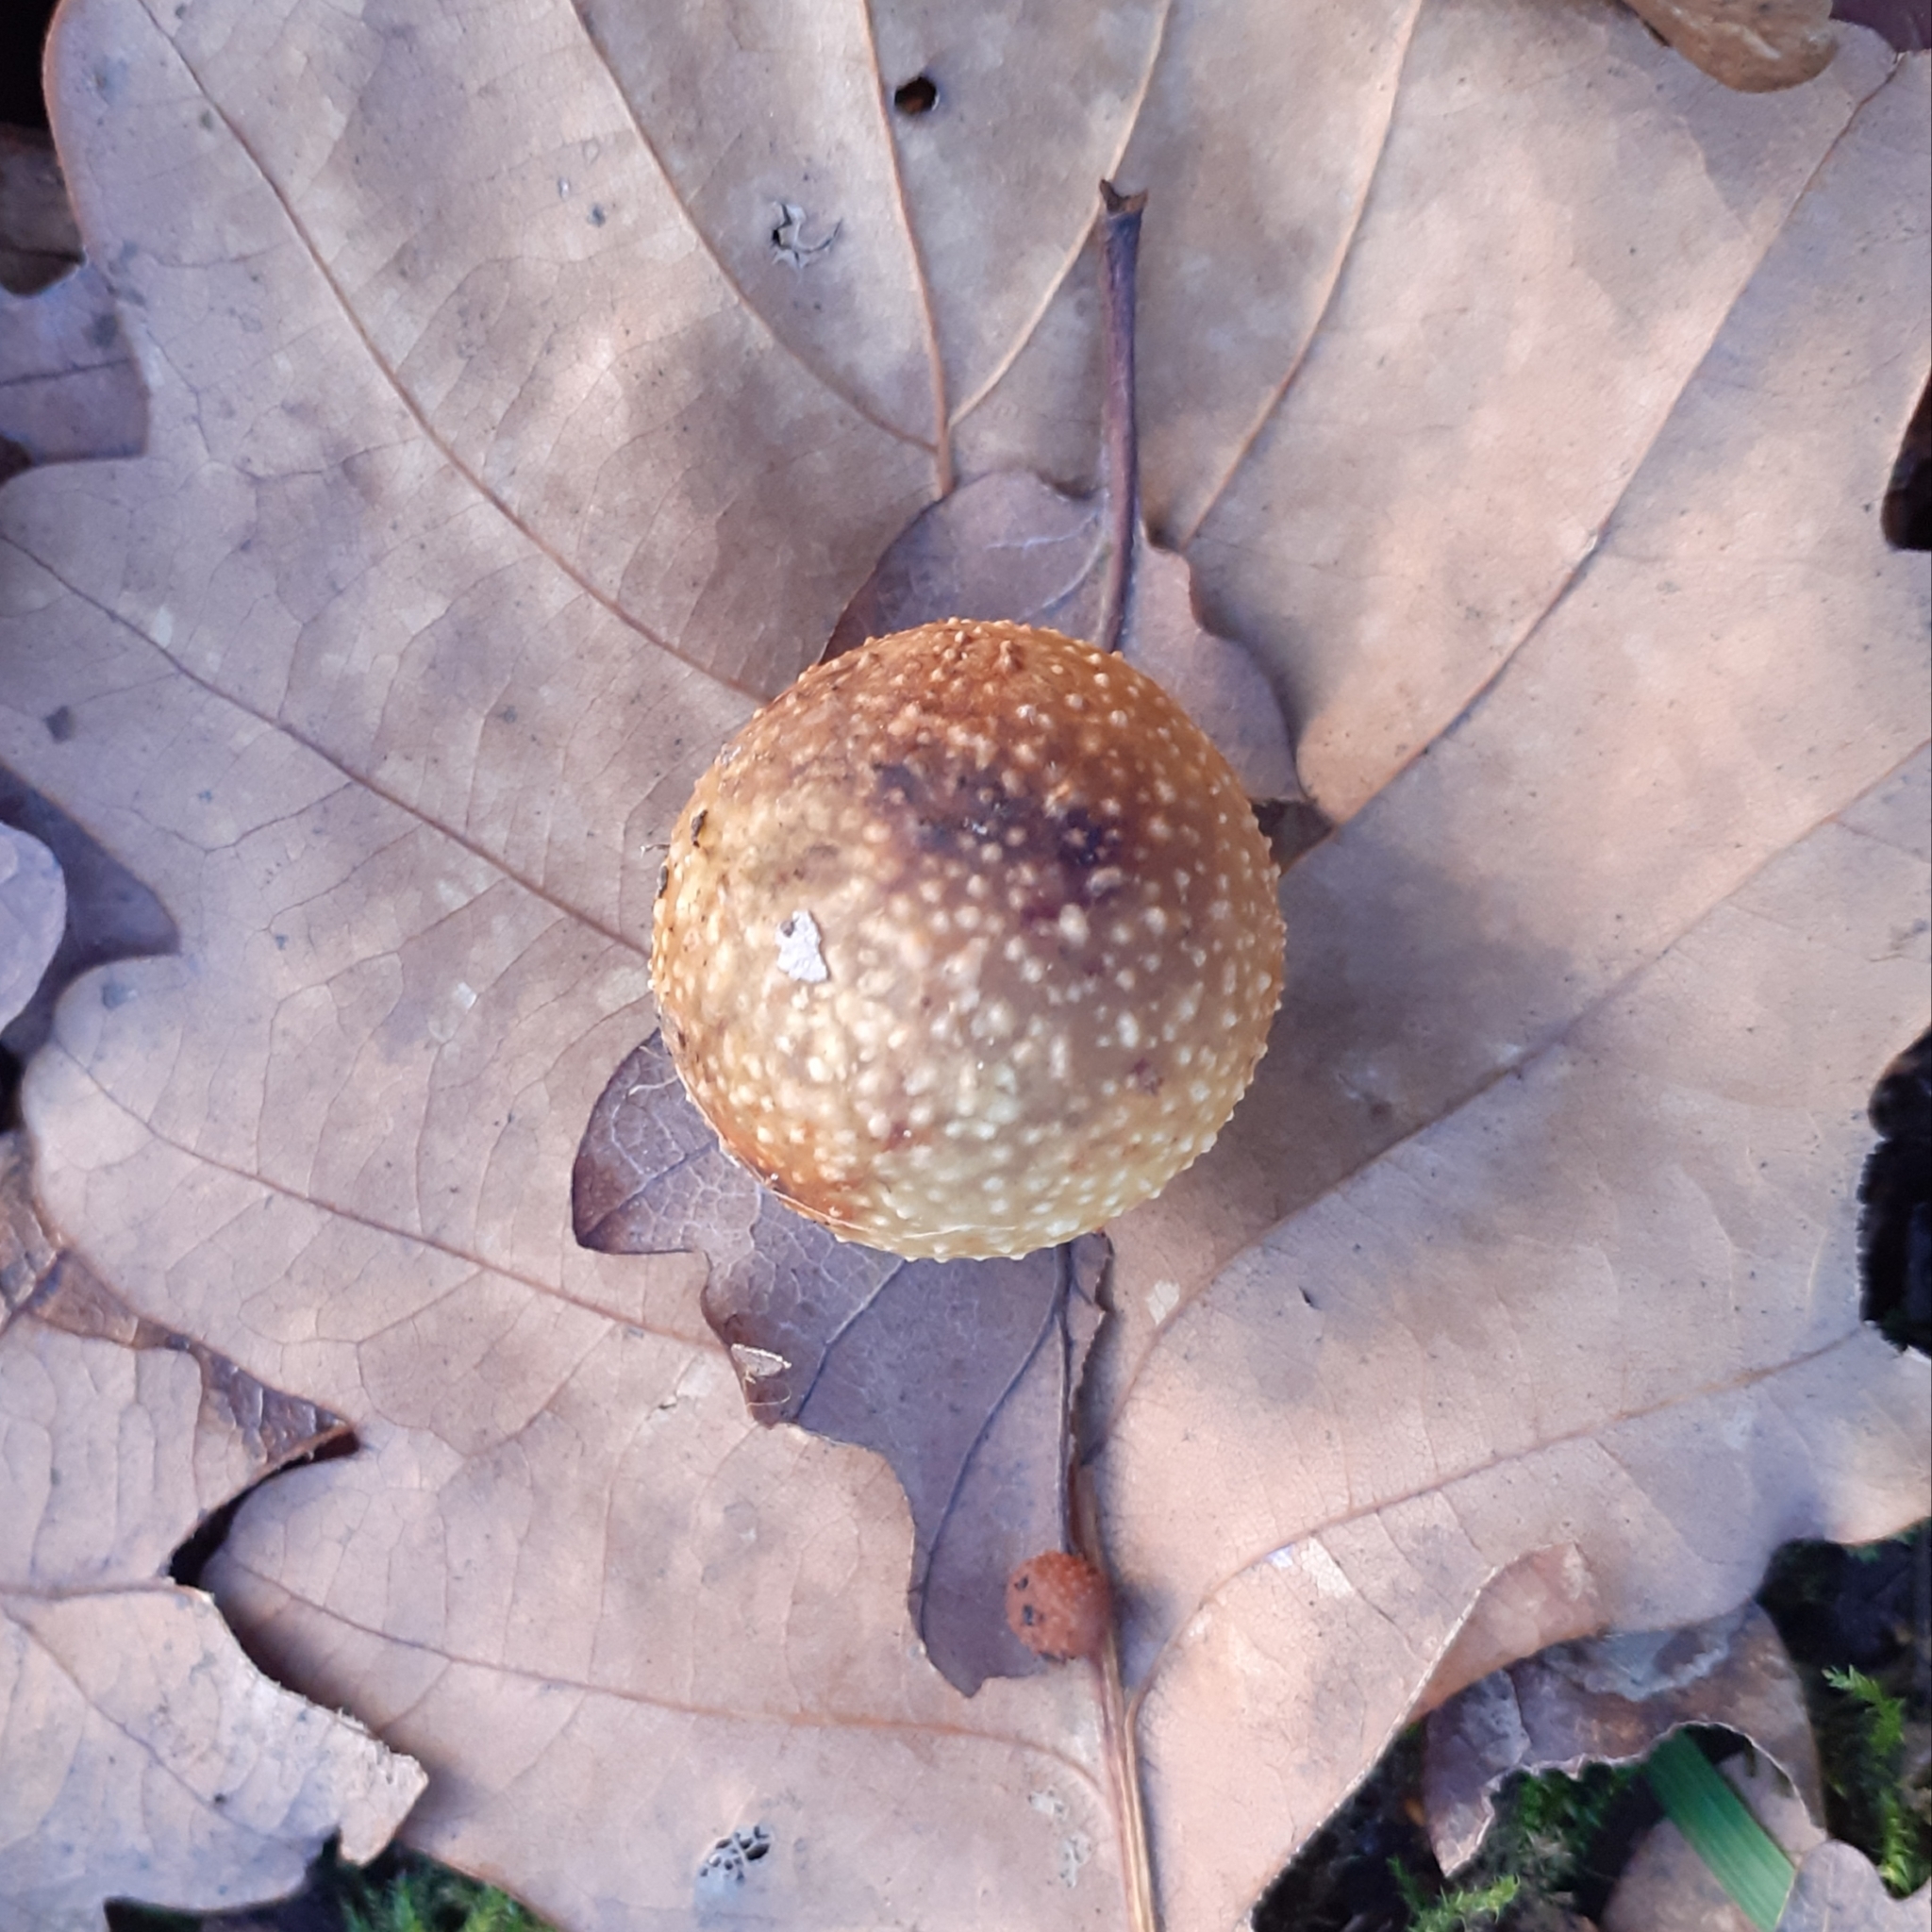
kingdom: Animalia
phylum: Arthropoda
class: Insecta
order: Hymenoptera
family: Cynipidae
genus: Cynips
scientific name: Cynips quercusfolii
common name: Cherry gall
